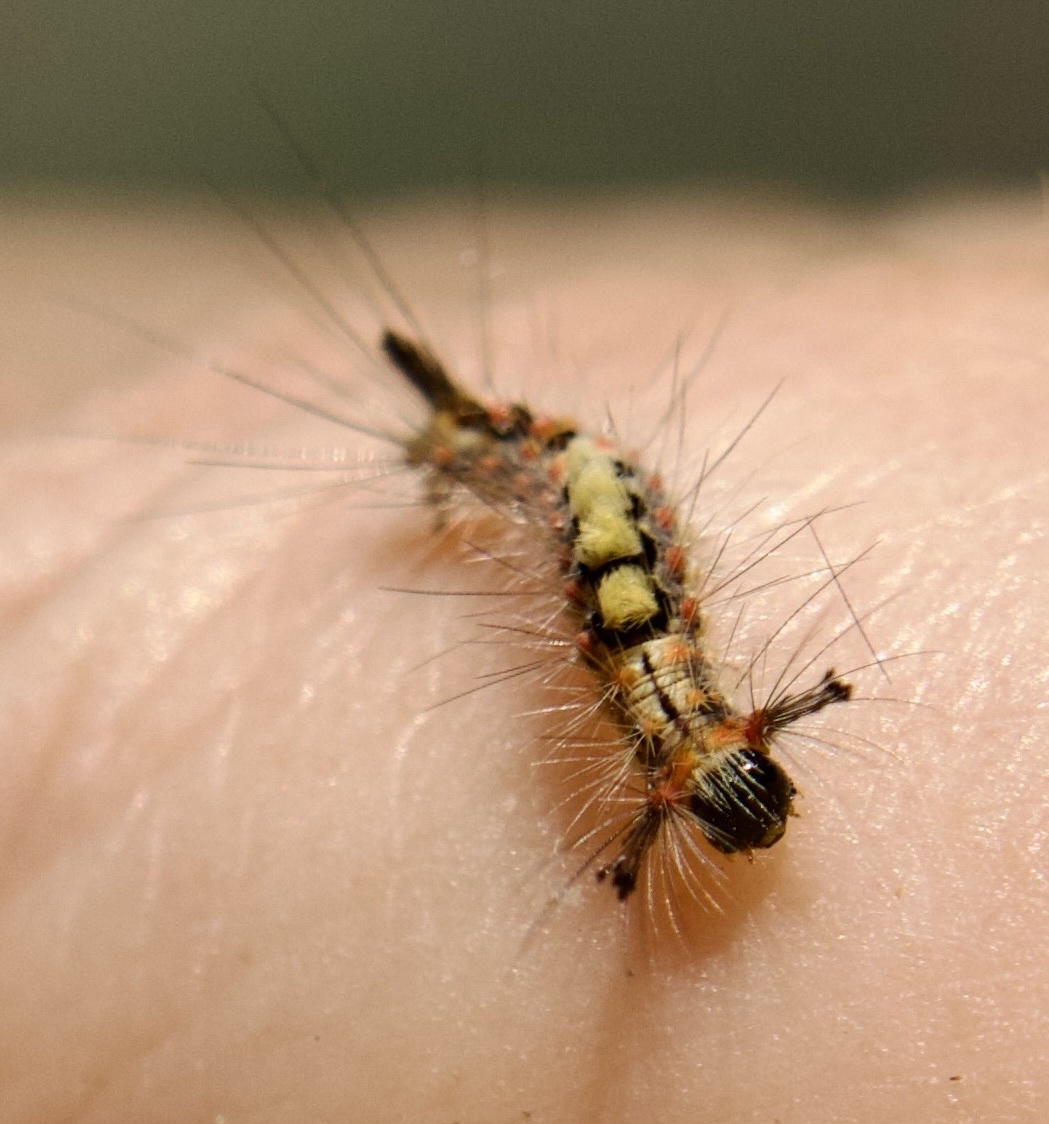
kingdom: Animalia
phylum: Arthropoda
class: Insecta
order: Lepidoptera
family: Erebidae
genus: Orgyia
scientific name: Orgyia antiqua
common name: Vapourer
